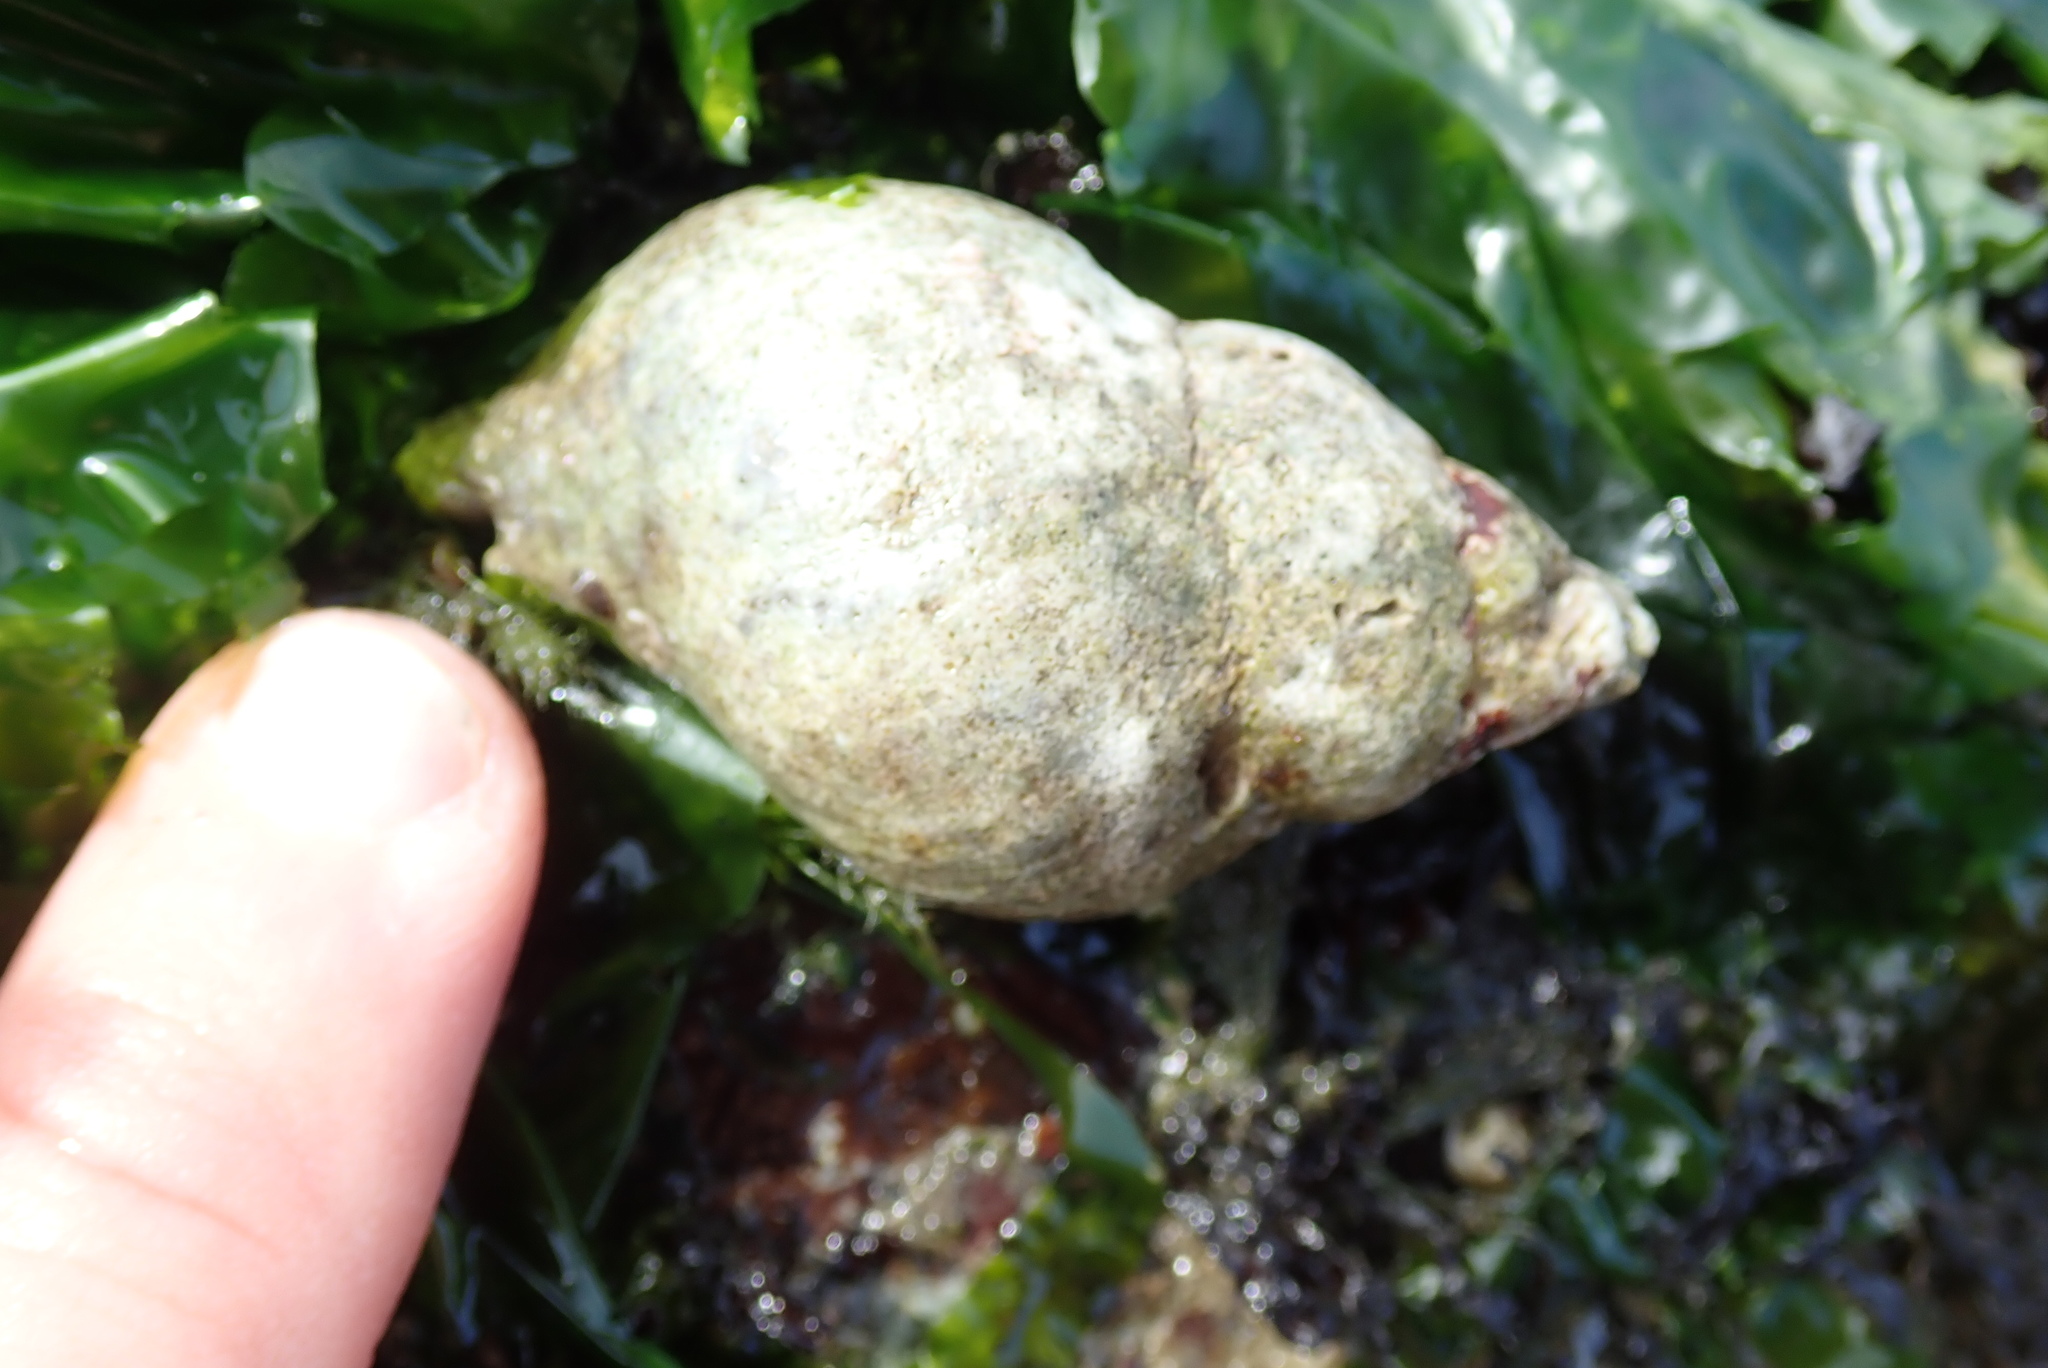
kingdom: Animalia
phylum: Mollusca
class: Gastropoda
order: Neogastropoda
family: Muricidae
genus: Nucella
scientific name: Nucella lamellosa
